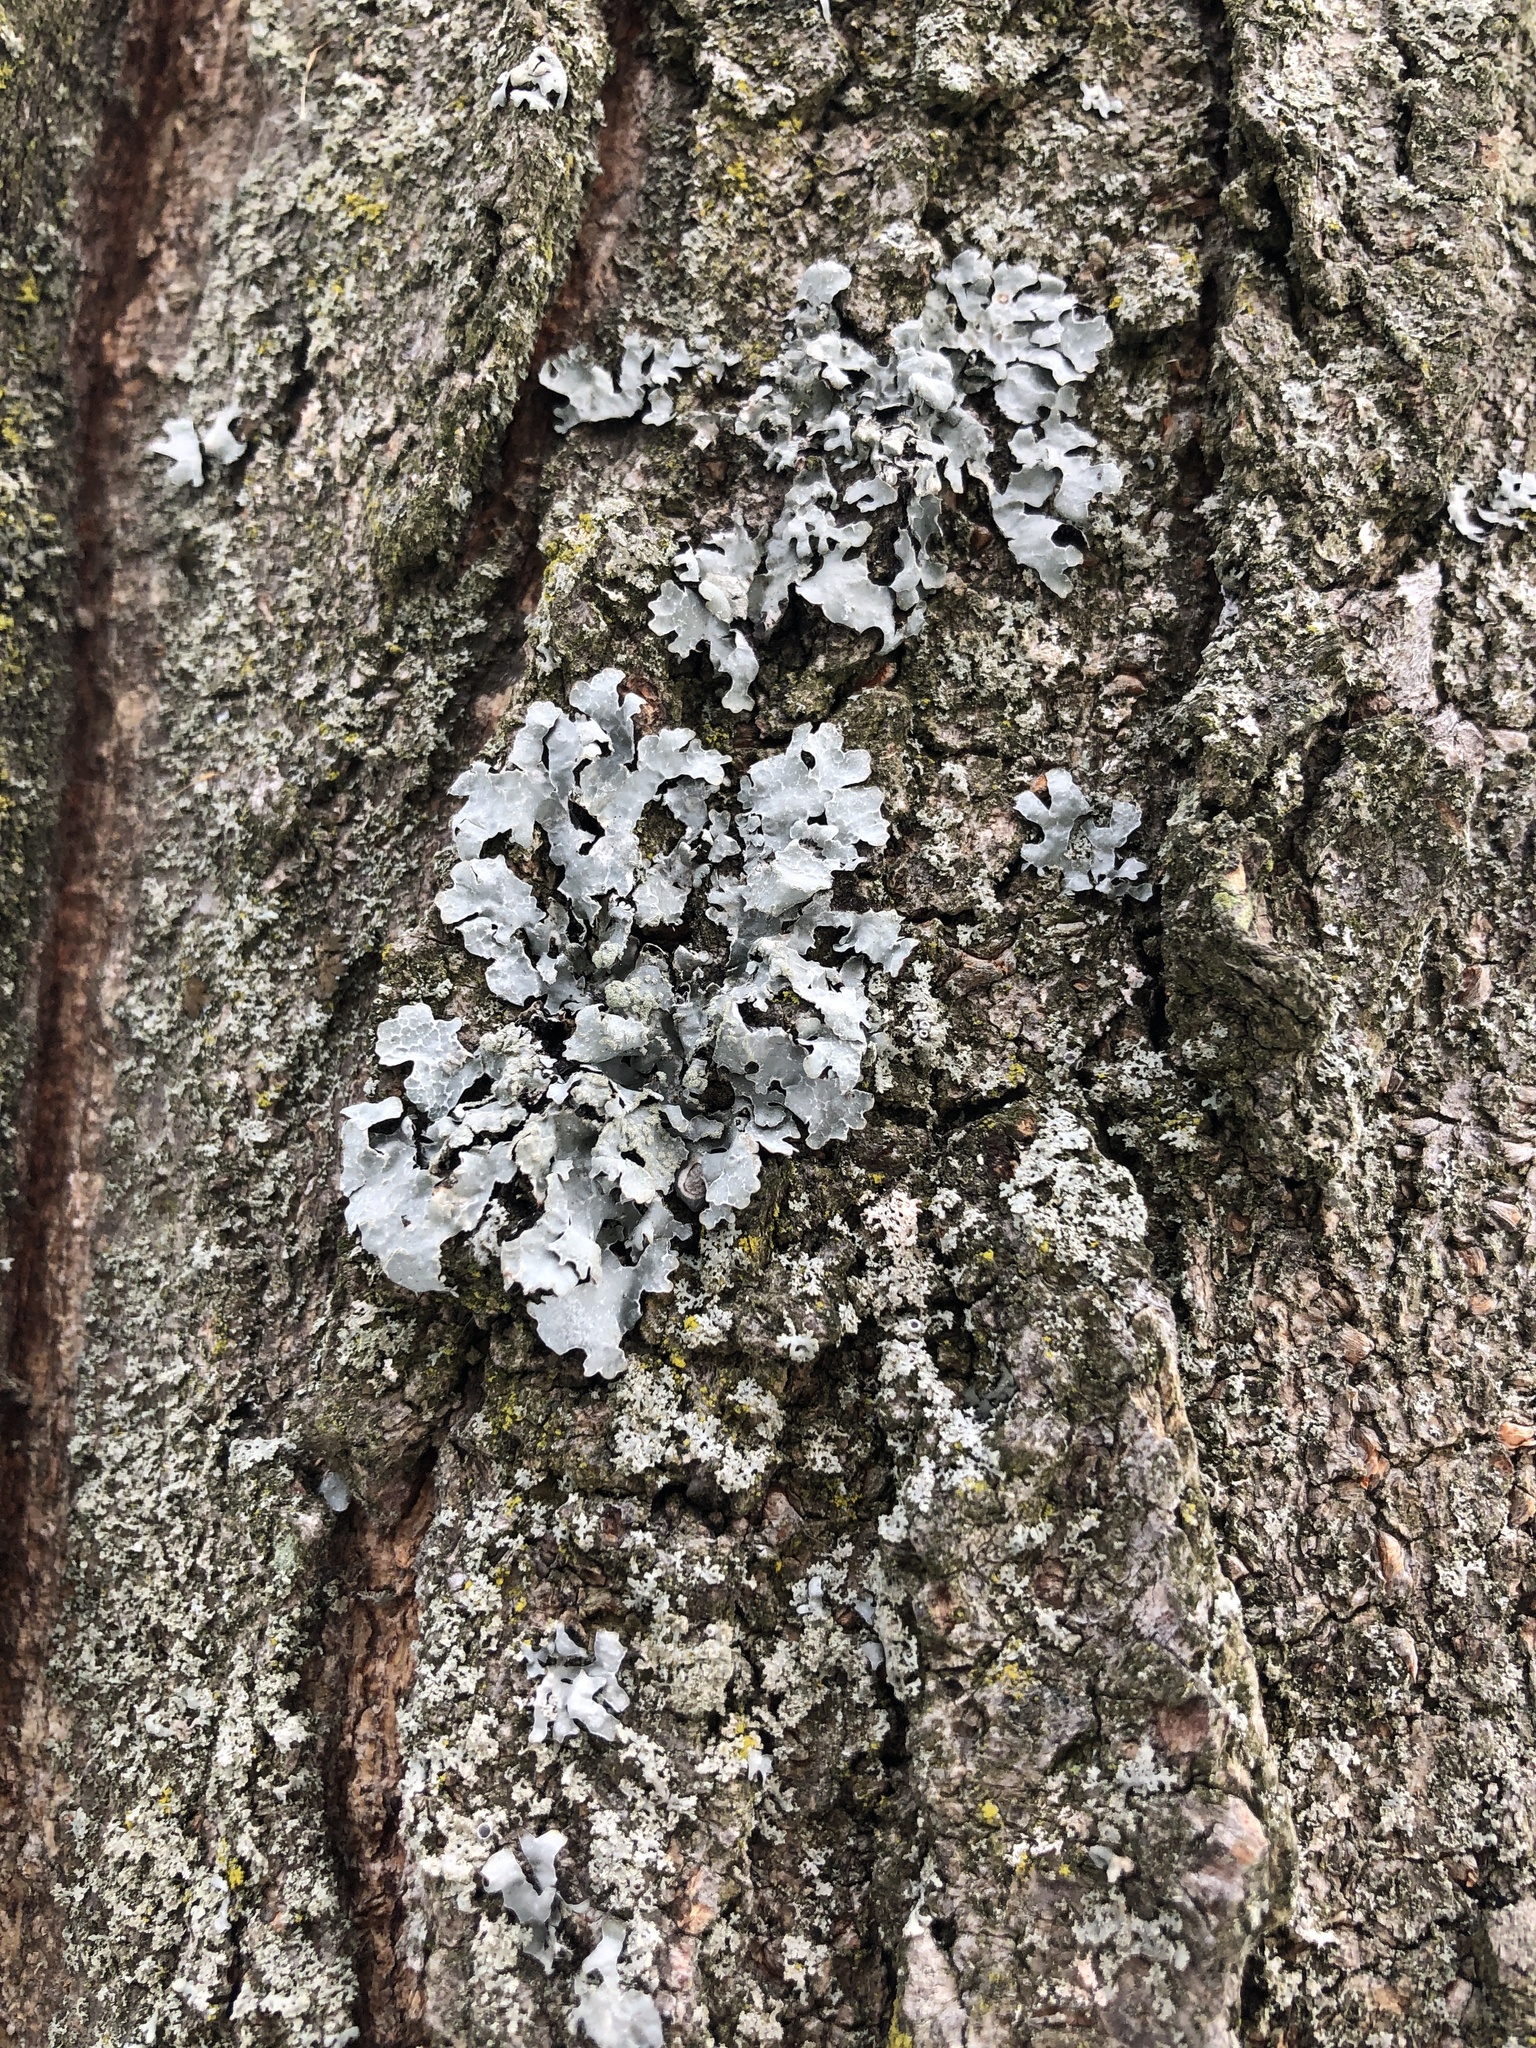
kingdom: Fungi
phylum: Ascomycota
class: Lecanoromycetes
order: Lecanorales
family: Parmeliaceae
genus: Parmelia
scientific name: Parmelia sulcata
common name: Netted shield lichen
